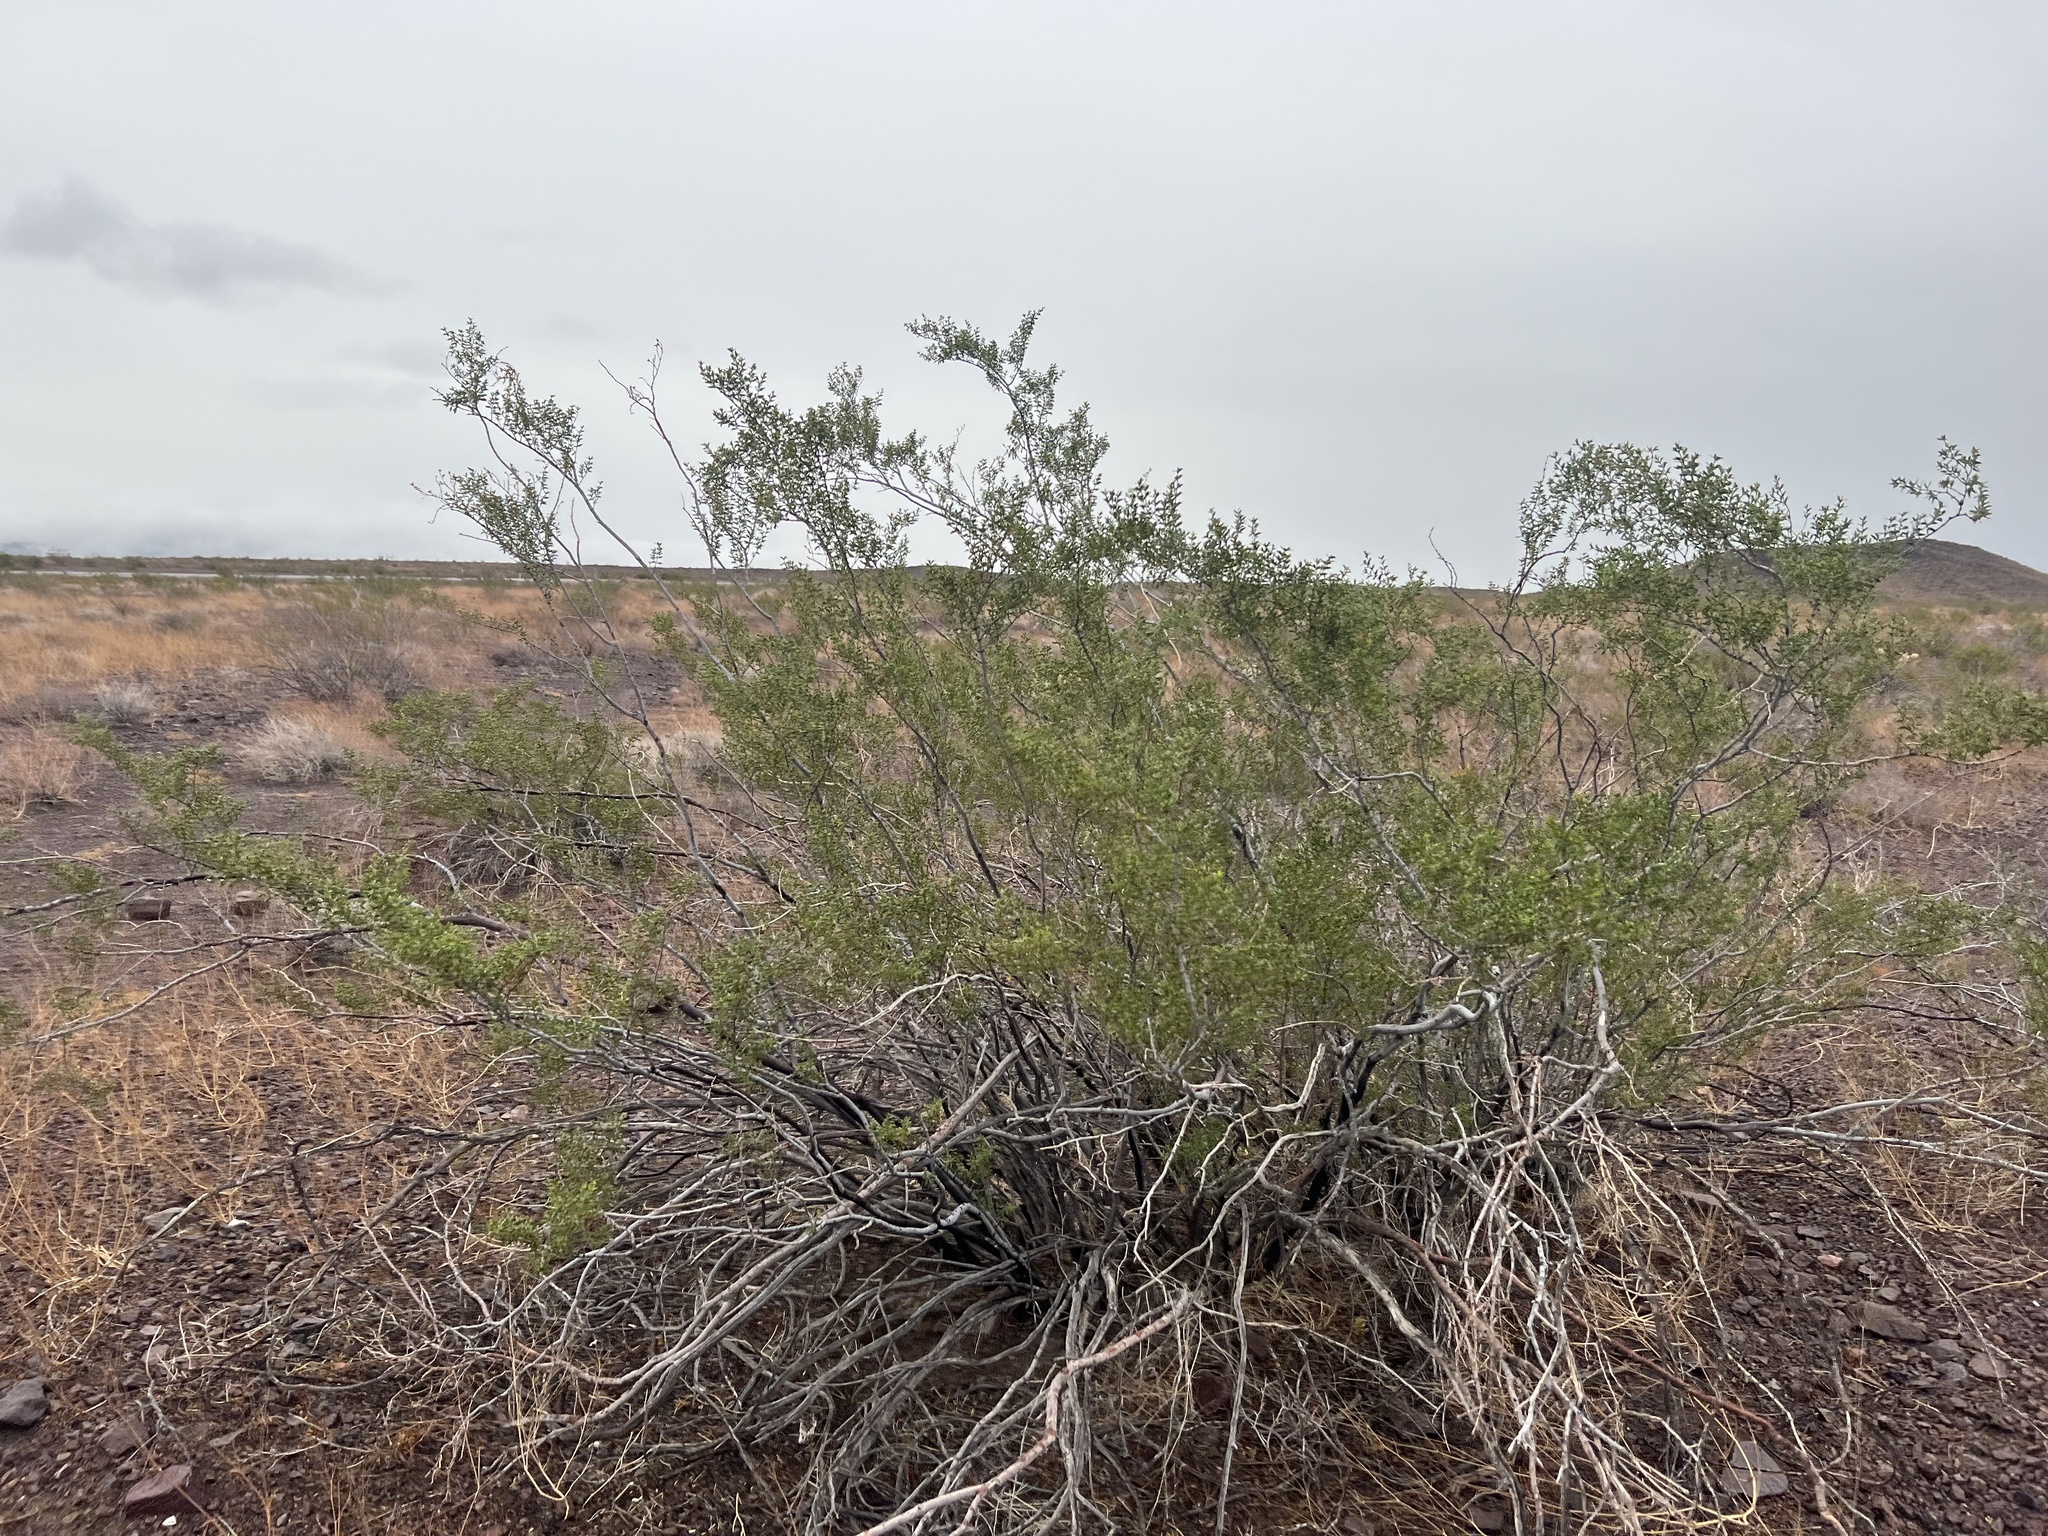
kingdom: Plantae
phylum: Tracheophyta
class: Magnoliopsida
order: Zygophyllales
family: Zygophyllaceae
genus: Larrea
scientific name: Larrea tridentata
